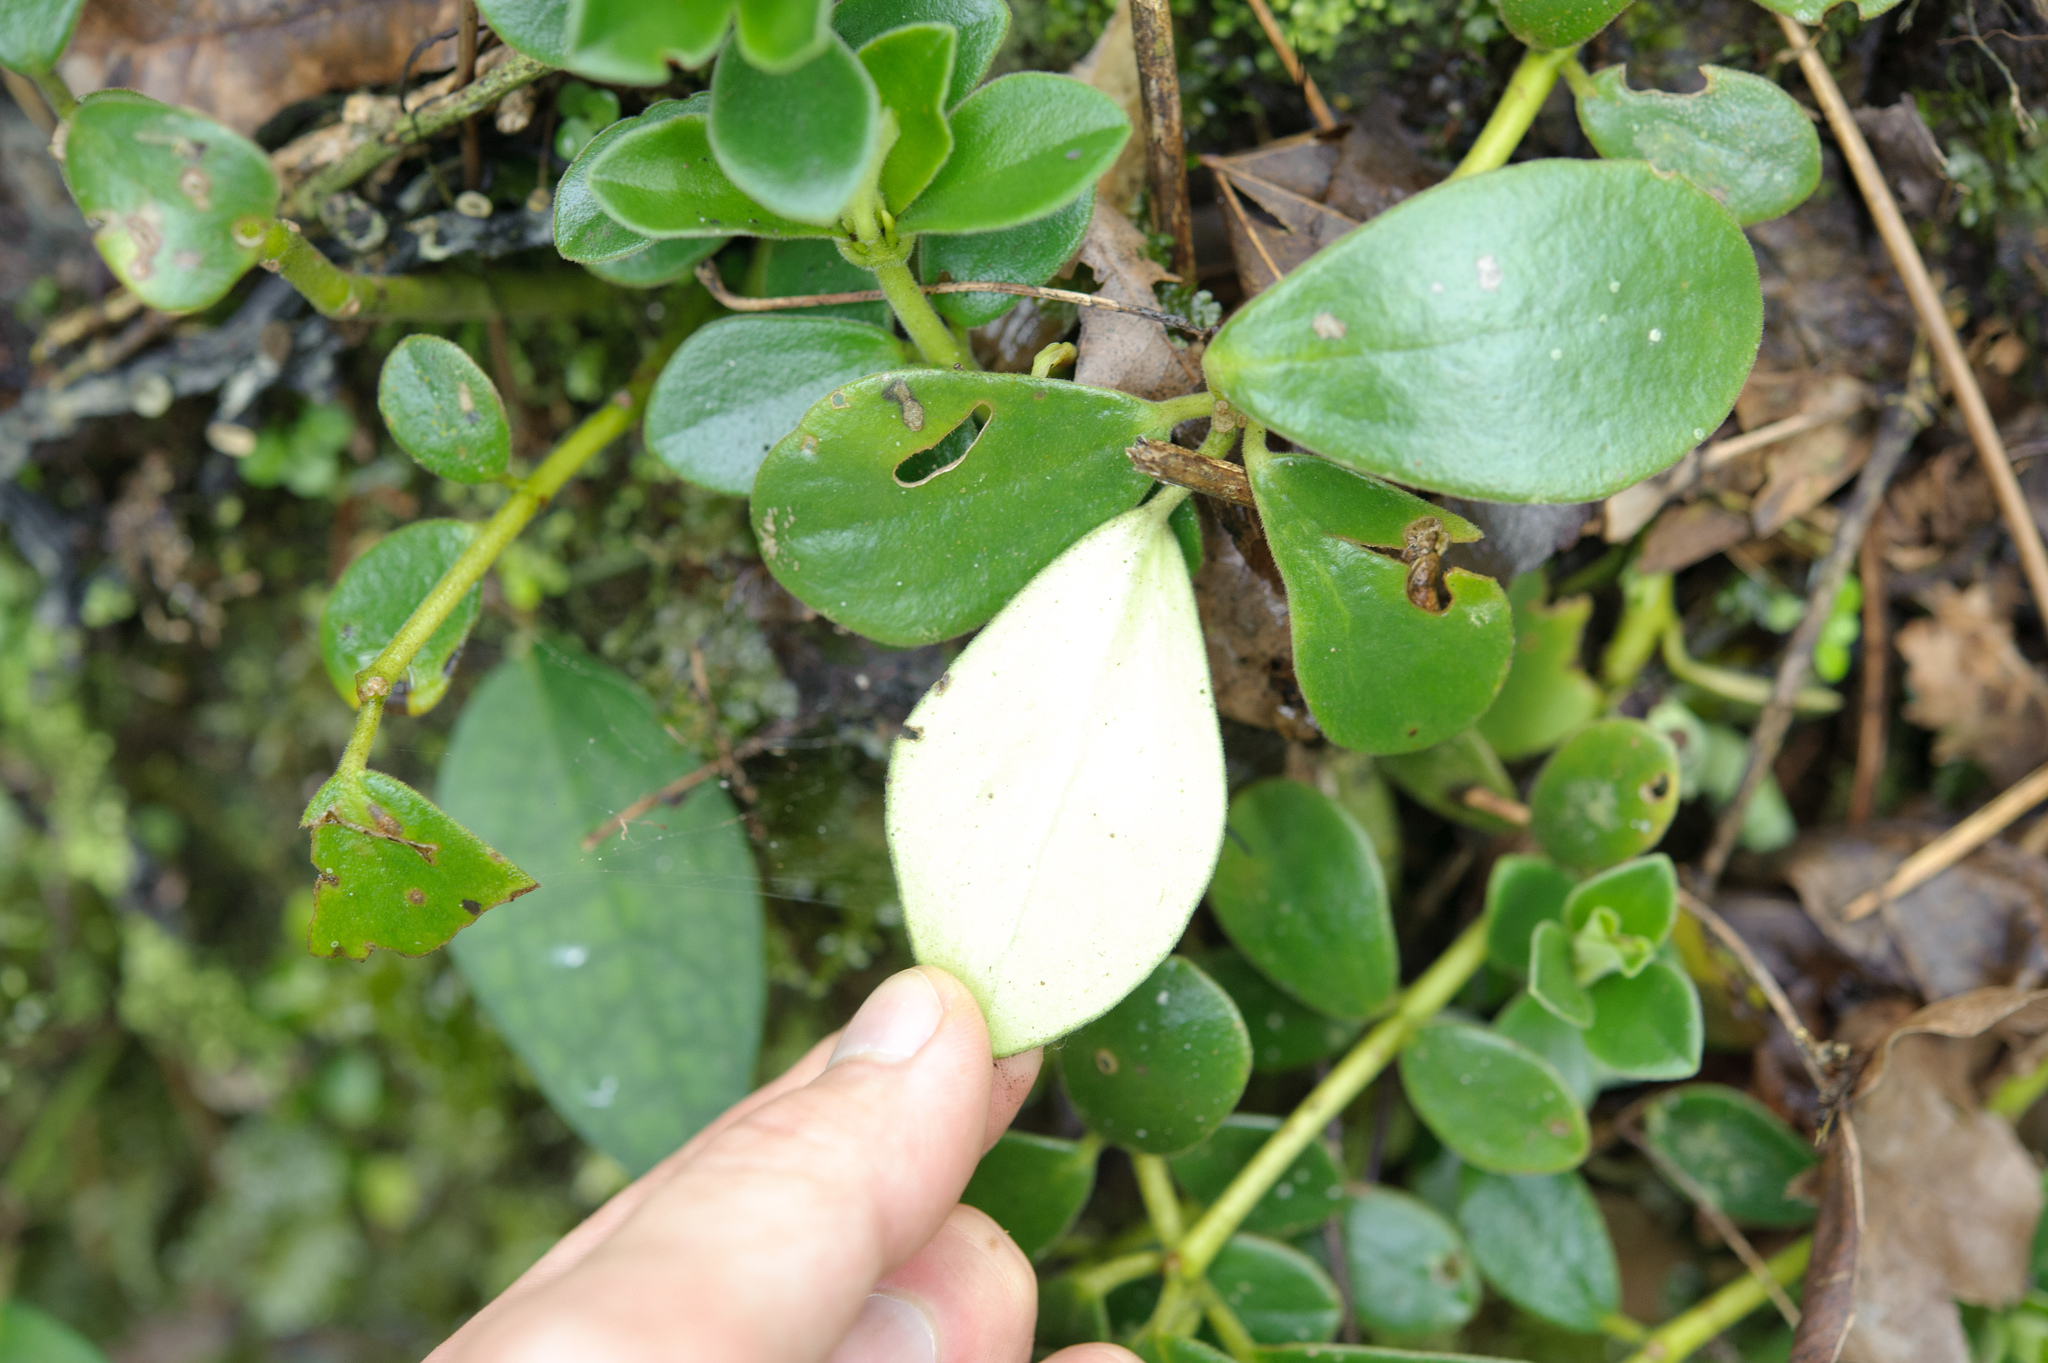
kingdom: Plantae
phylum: Tracheophyta
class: Magnoliopsida
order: Piperales
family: Piperaceae
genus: Peperomia
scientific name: Peperomia japonica
